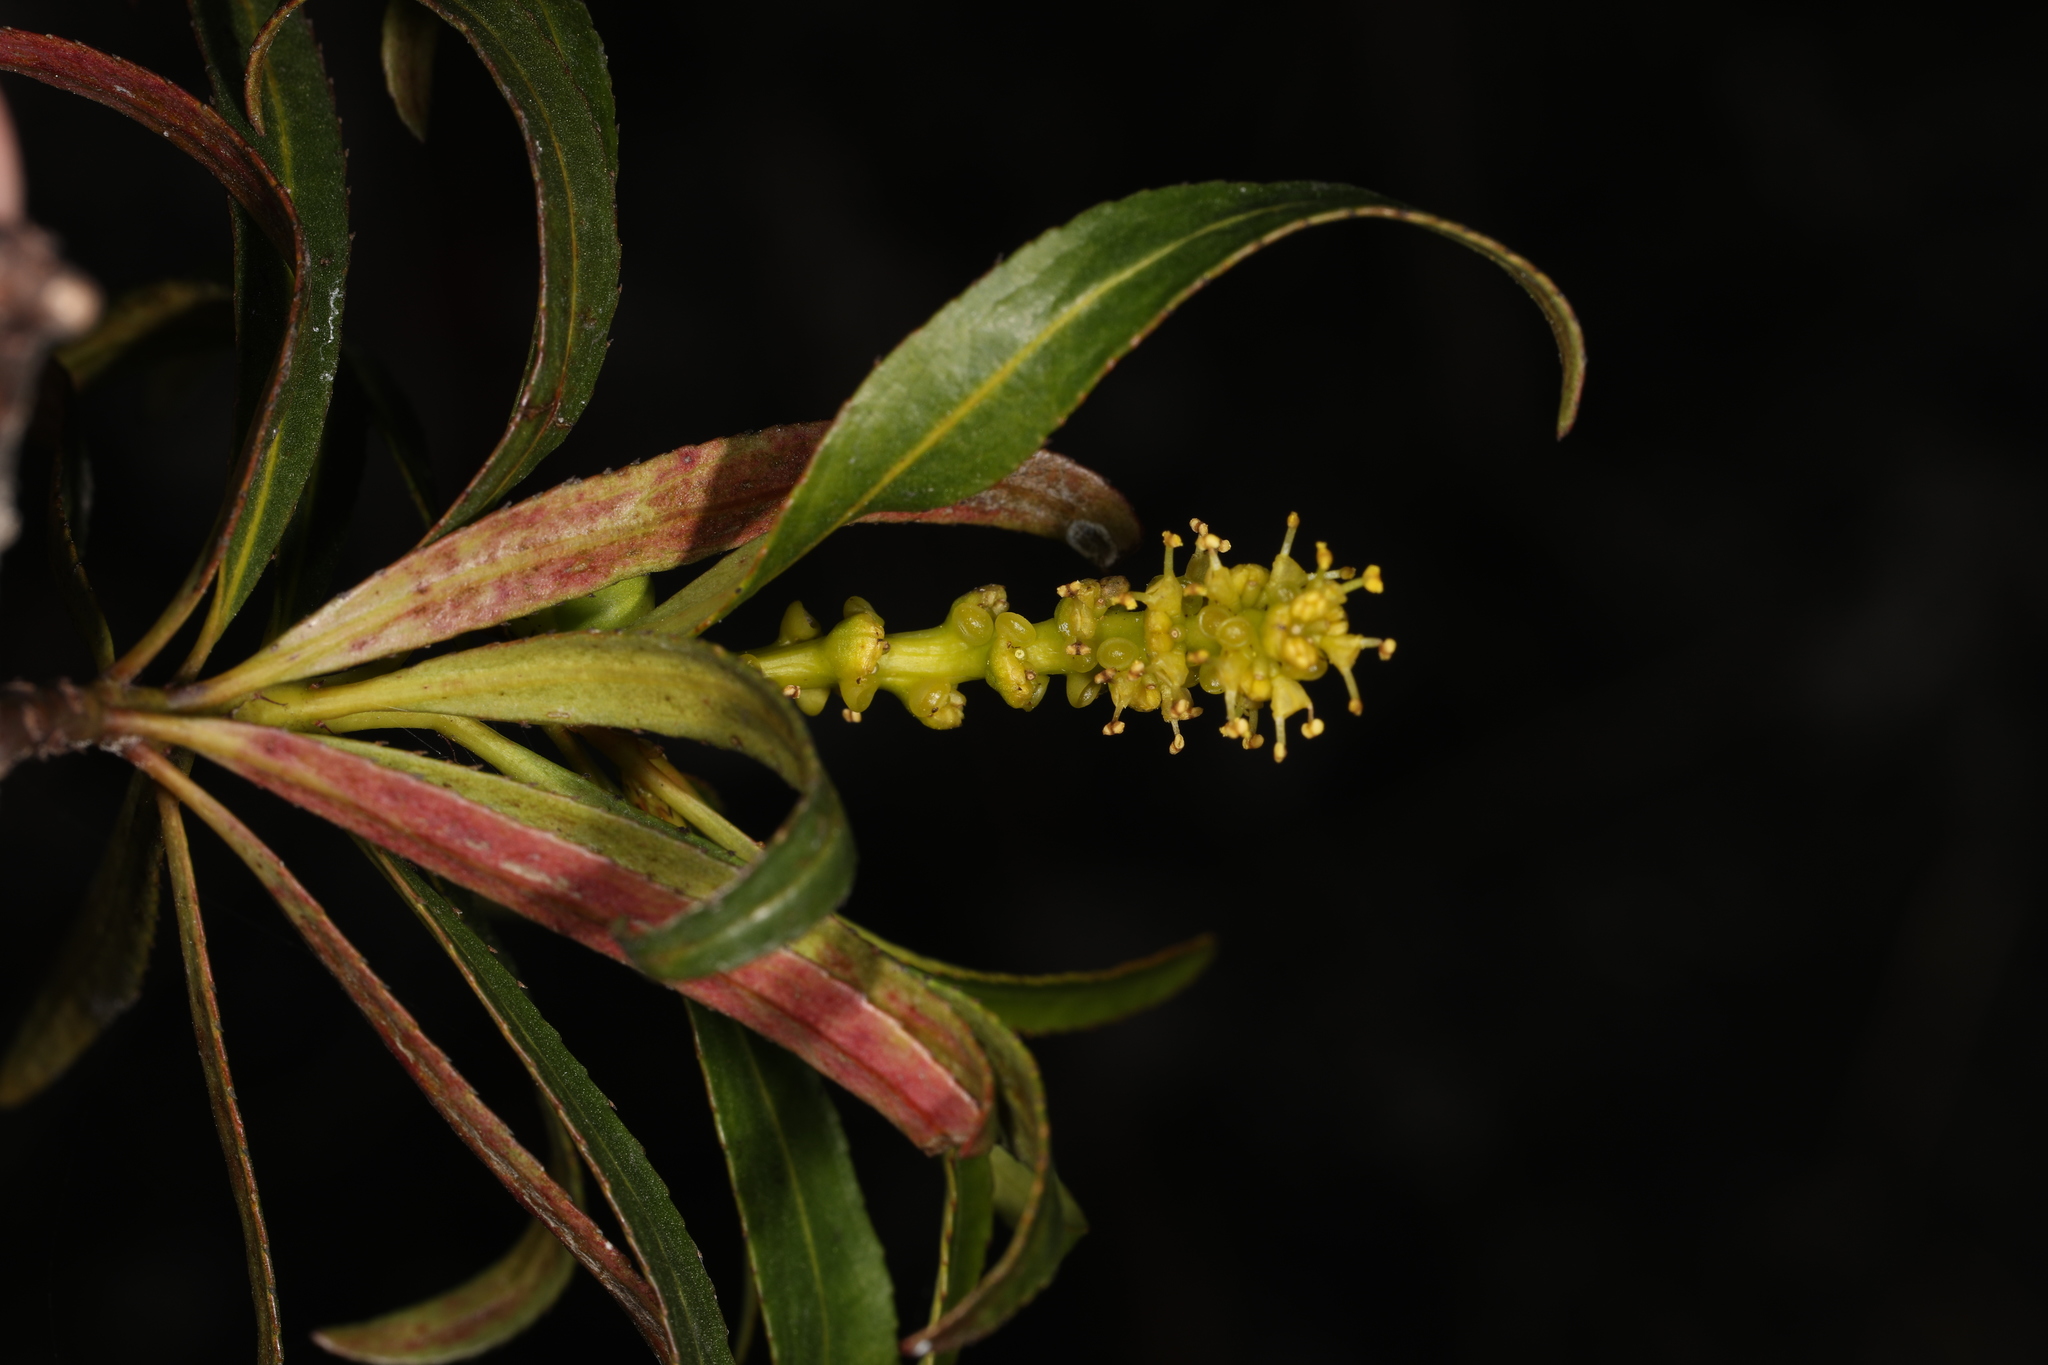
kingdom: Plantae
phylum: Tracheophyta
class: Magnoliopsida
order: Malpighiales
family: Euphorbiaceae
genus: Stillingia
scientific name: Stillingia aquatica
